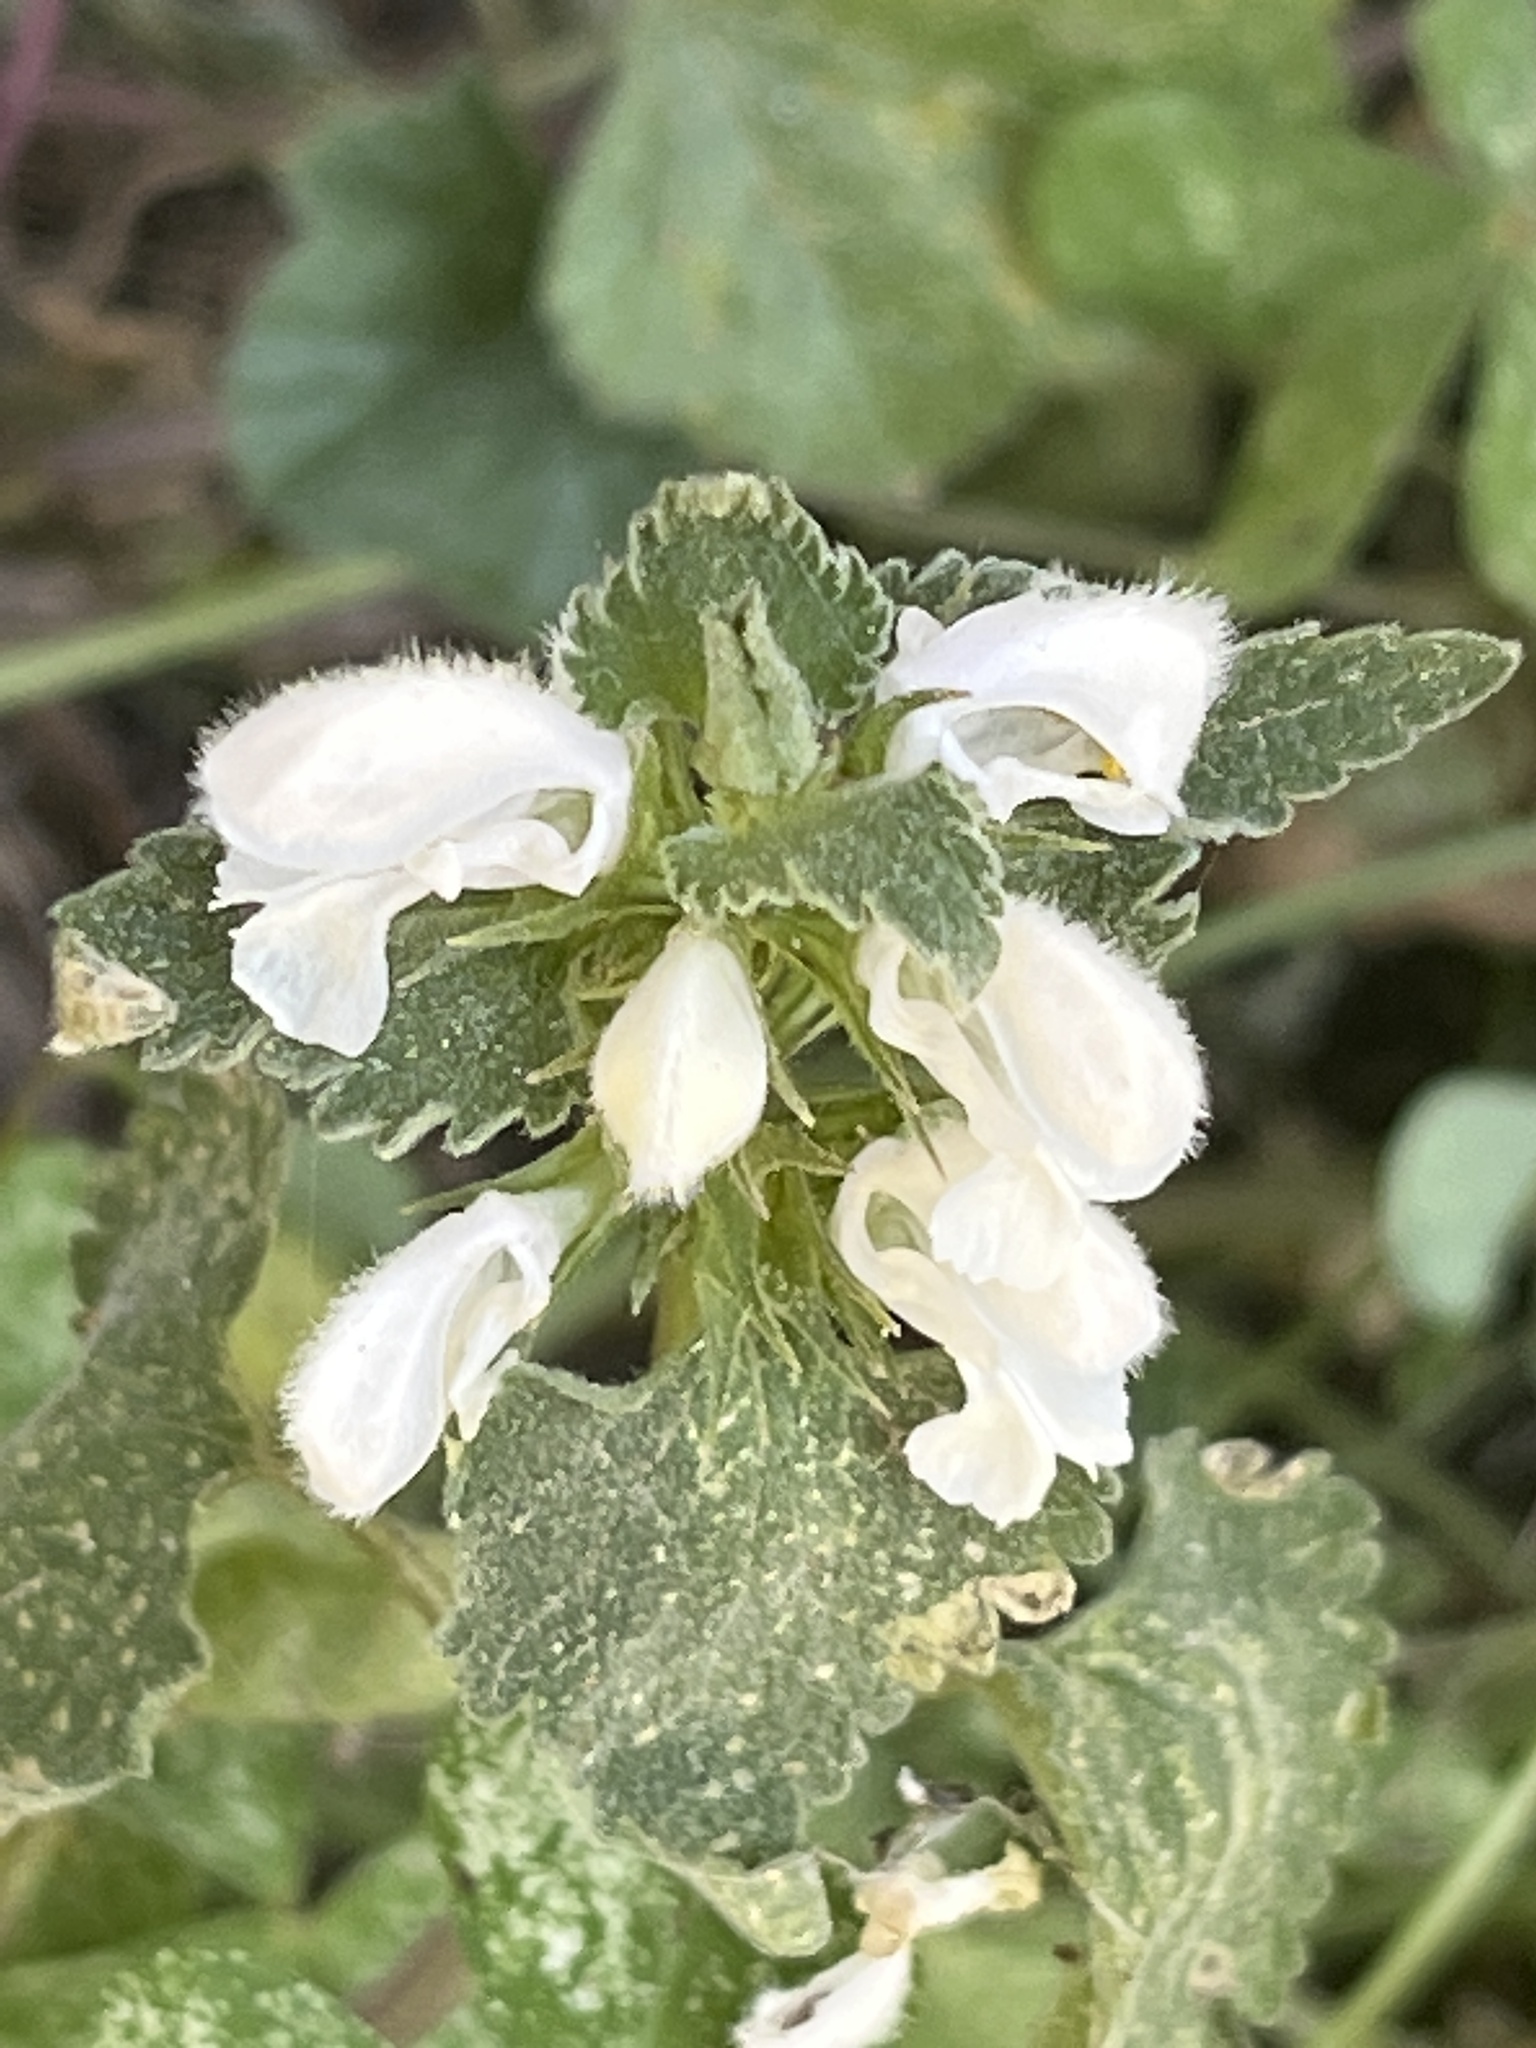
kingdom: Plantae
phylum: Tracheophyta
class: Magnoliopsida
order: Lamiales
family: Lamiaceae
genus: Lamium
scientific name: Lamium moschatum
